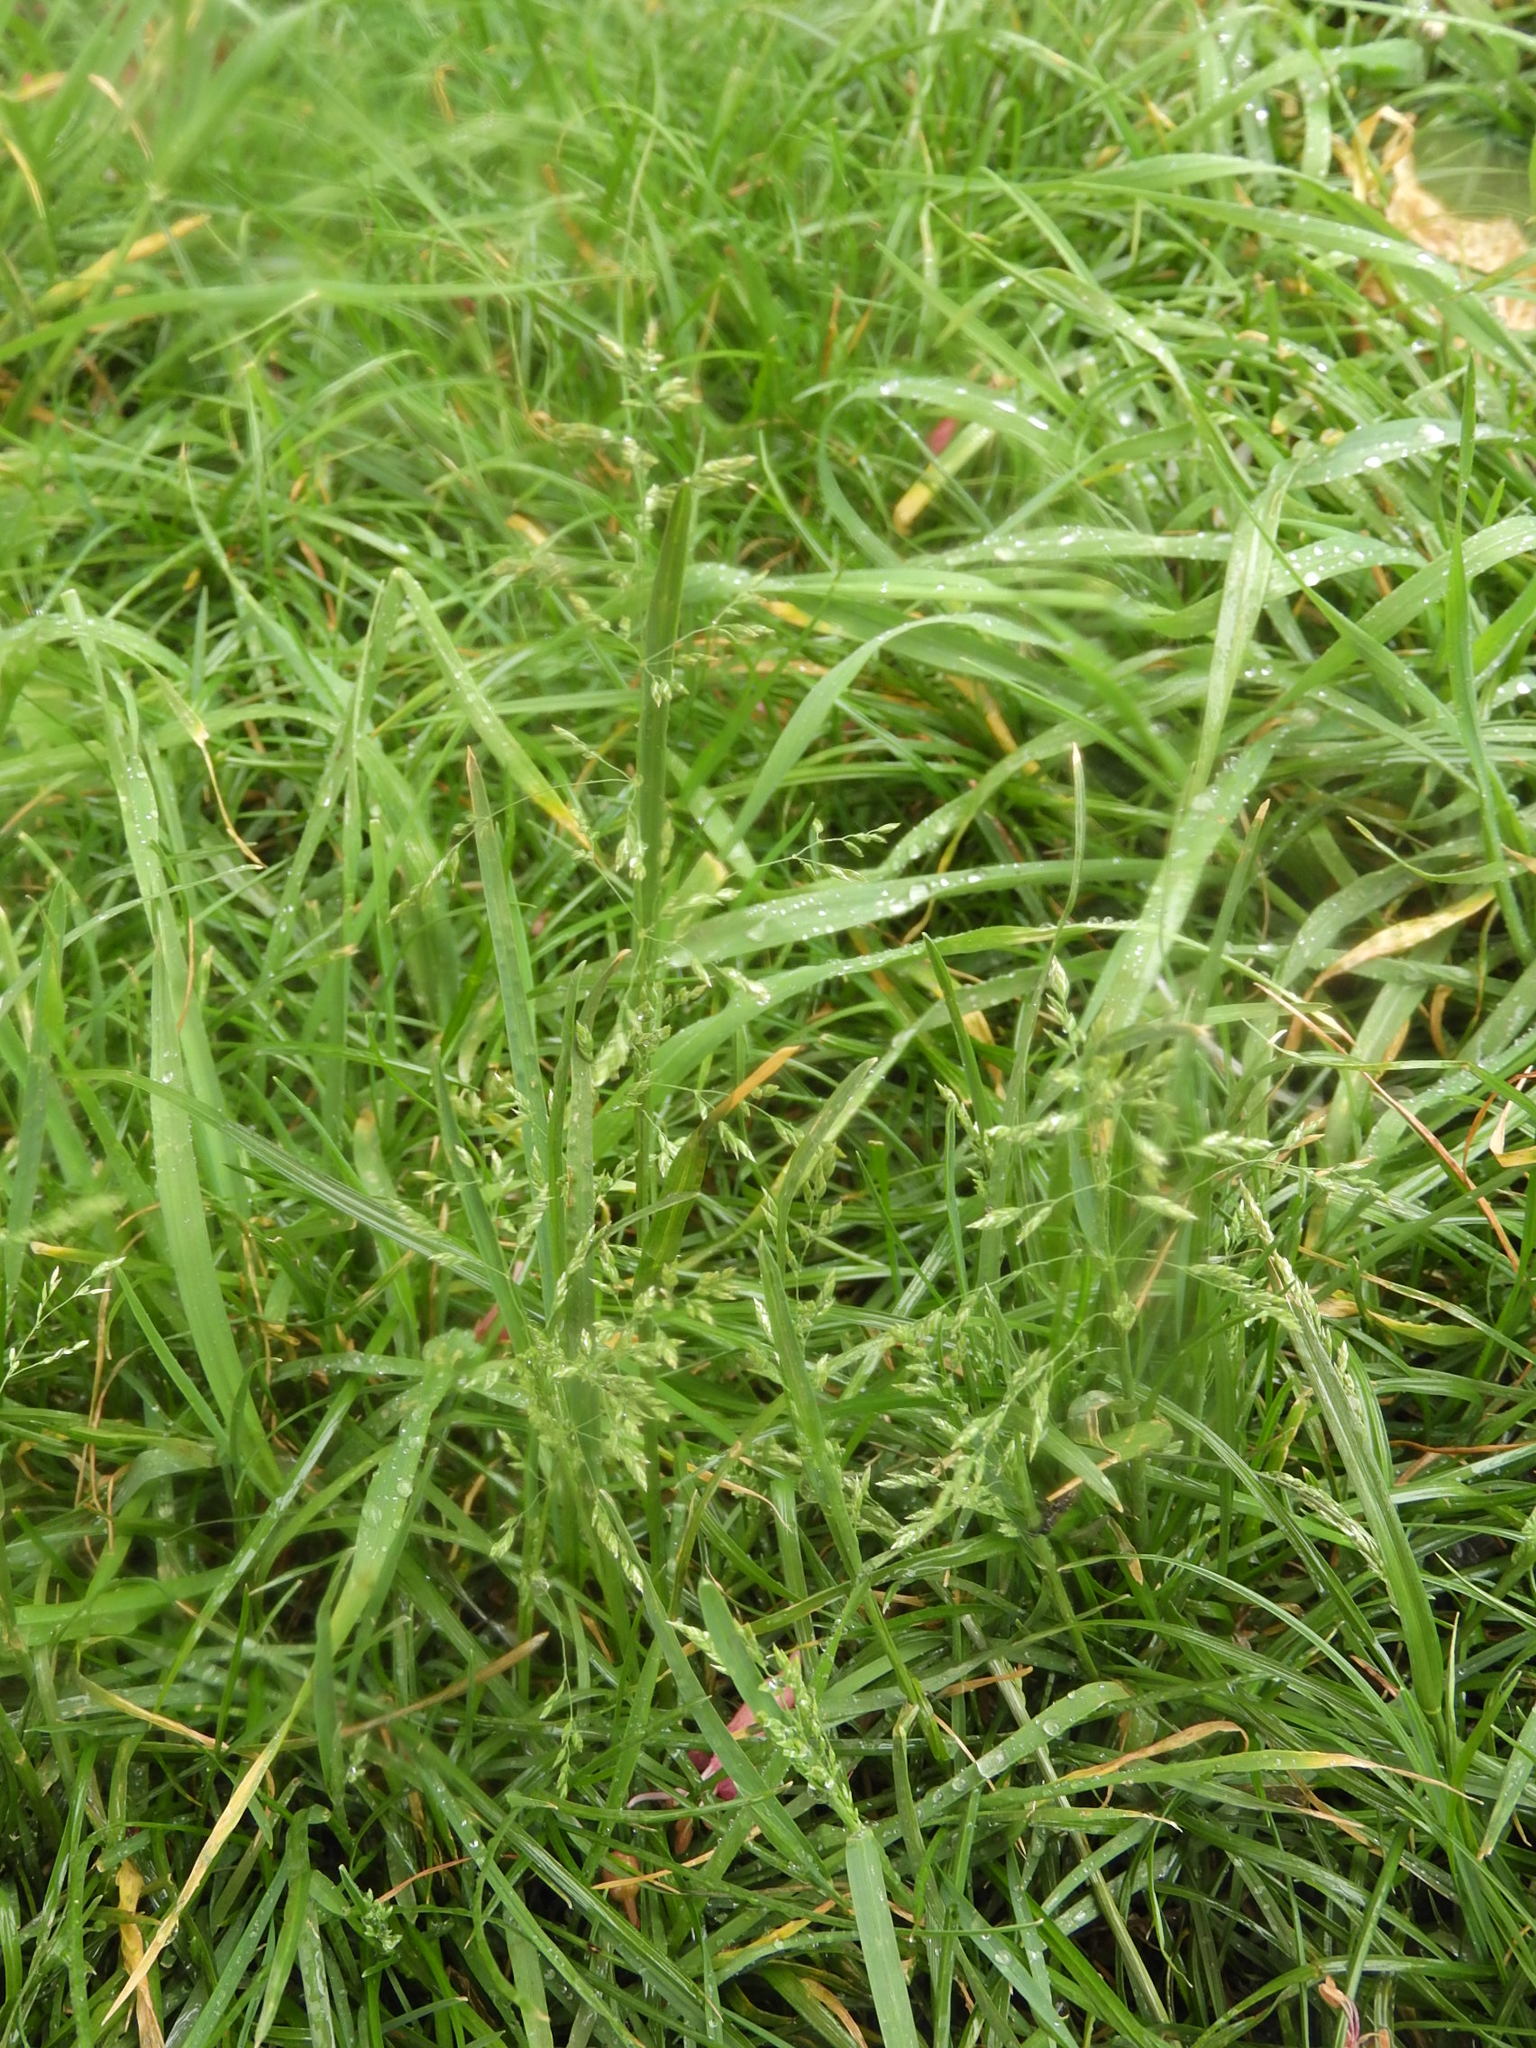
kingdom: Plantae
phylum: Tracheophyta
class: Liliopsida
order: Poales
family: Poaceae
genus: Poa
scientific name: Poa pratensis
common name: Kentucky bluegrass
